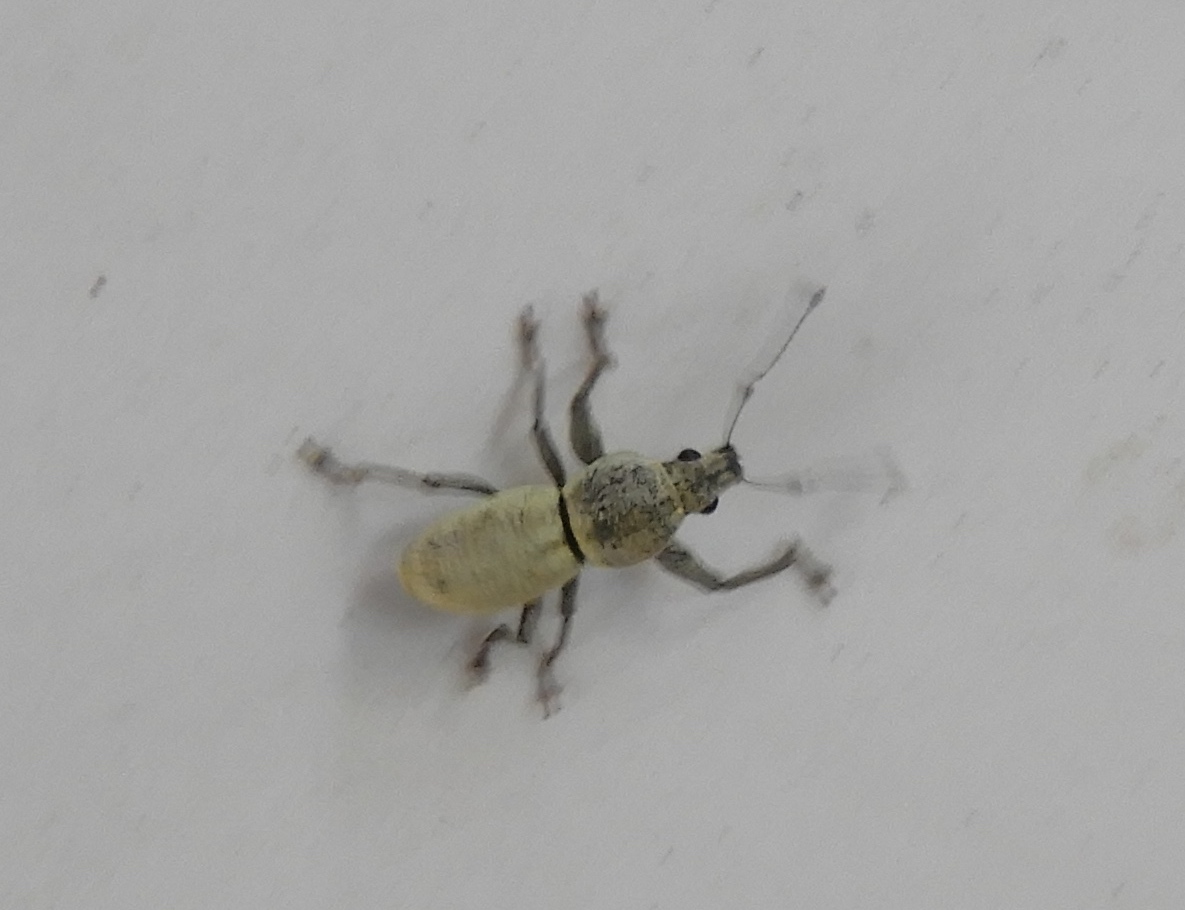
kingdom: Animalia
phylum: Arthropoda
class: Insecta
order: Coleoptera
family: Curculionidae
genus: Pantomorus
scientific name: Pantomorus
